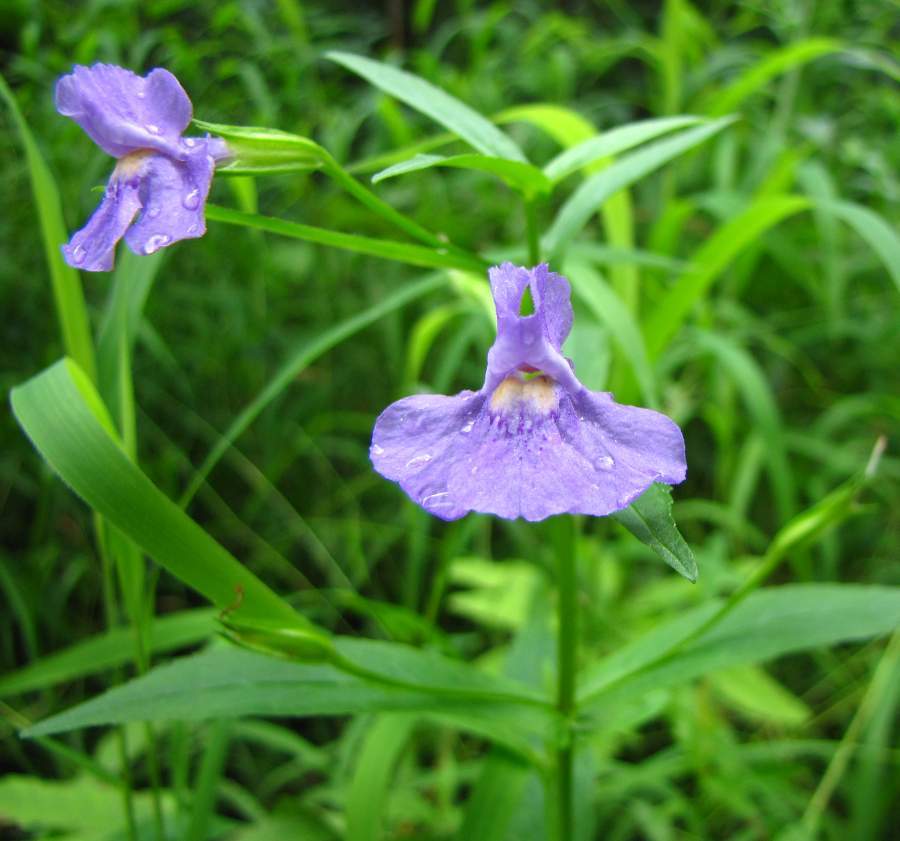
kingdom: Plantae
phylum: Tracheophyta
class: Magnoliopsida
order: Lamiales
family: Phrymaceae
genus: Mimulus
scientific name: Mimulus ringens
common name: Allegheny monkeyflower
